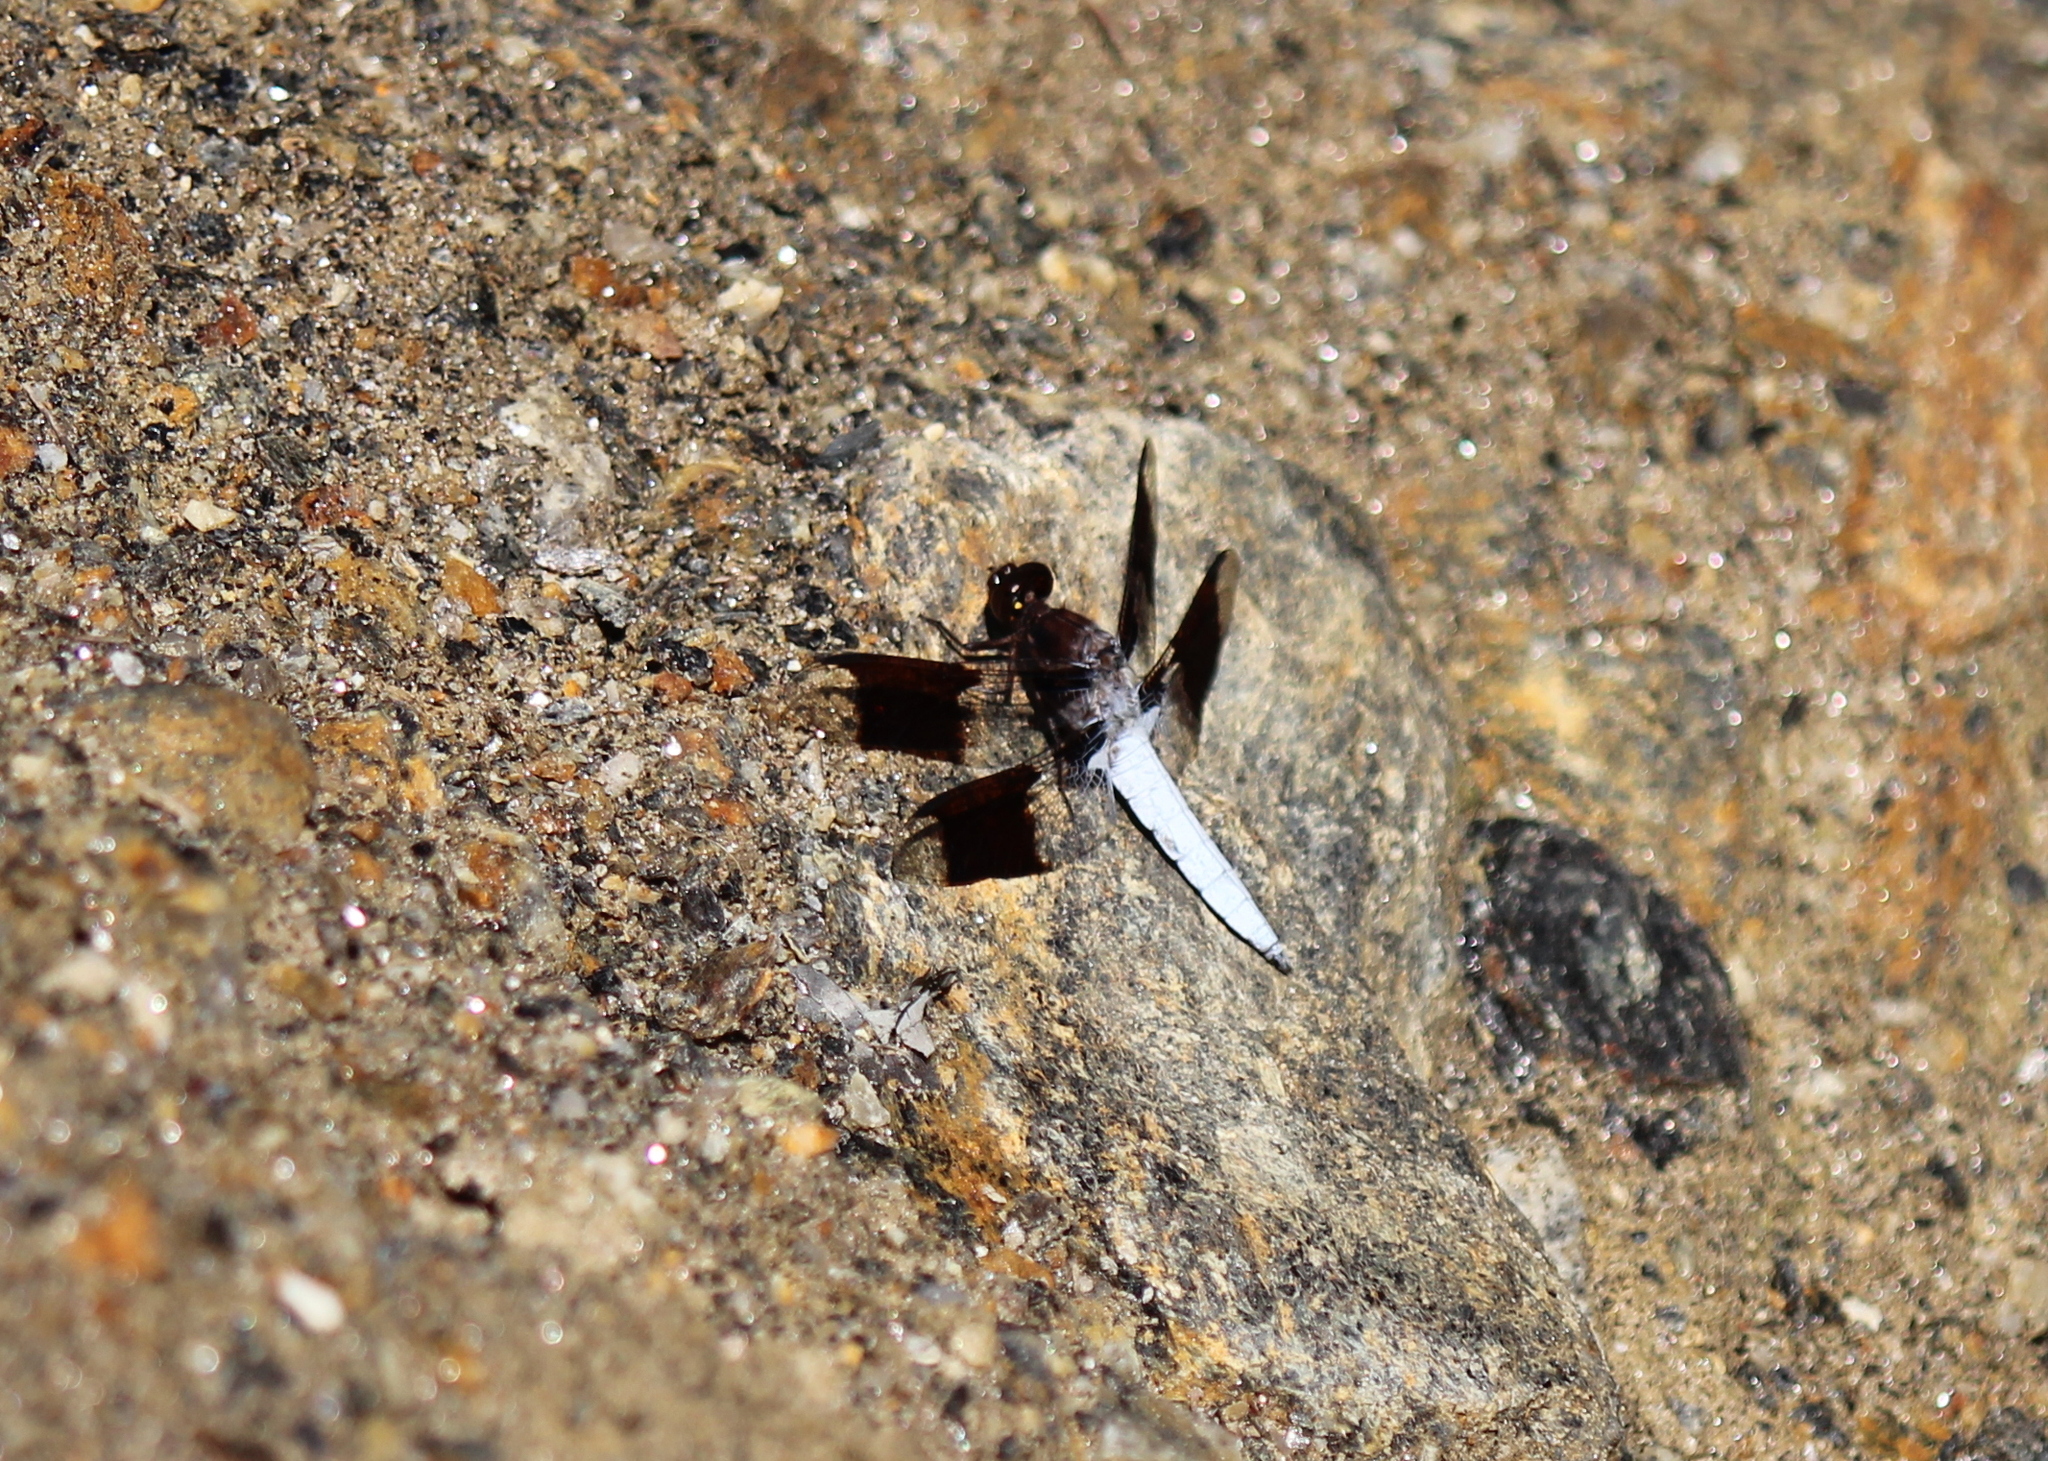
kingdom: Animalia
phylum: Arthropoda
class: Insecta
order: Odonata
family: Libellulidae
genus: Plathemis
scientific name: Plathemis lydia
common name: Common whitetail
